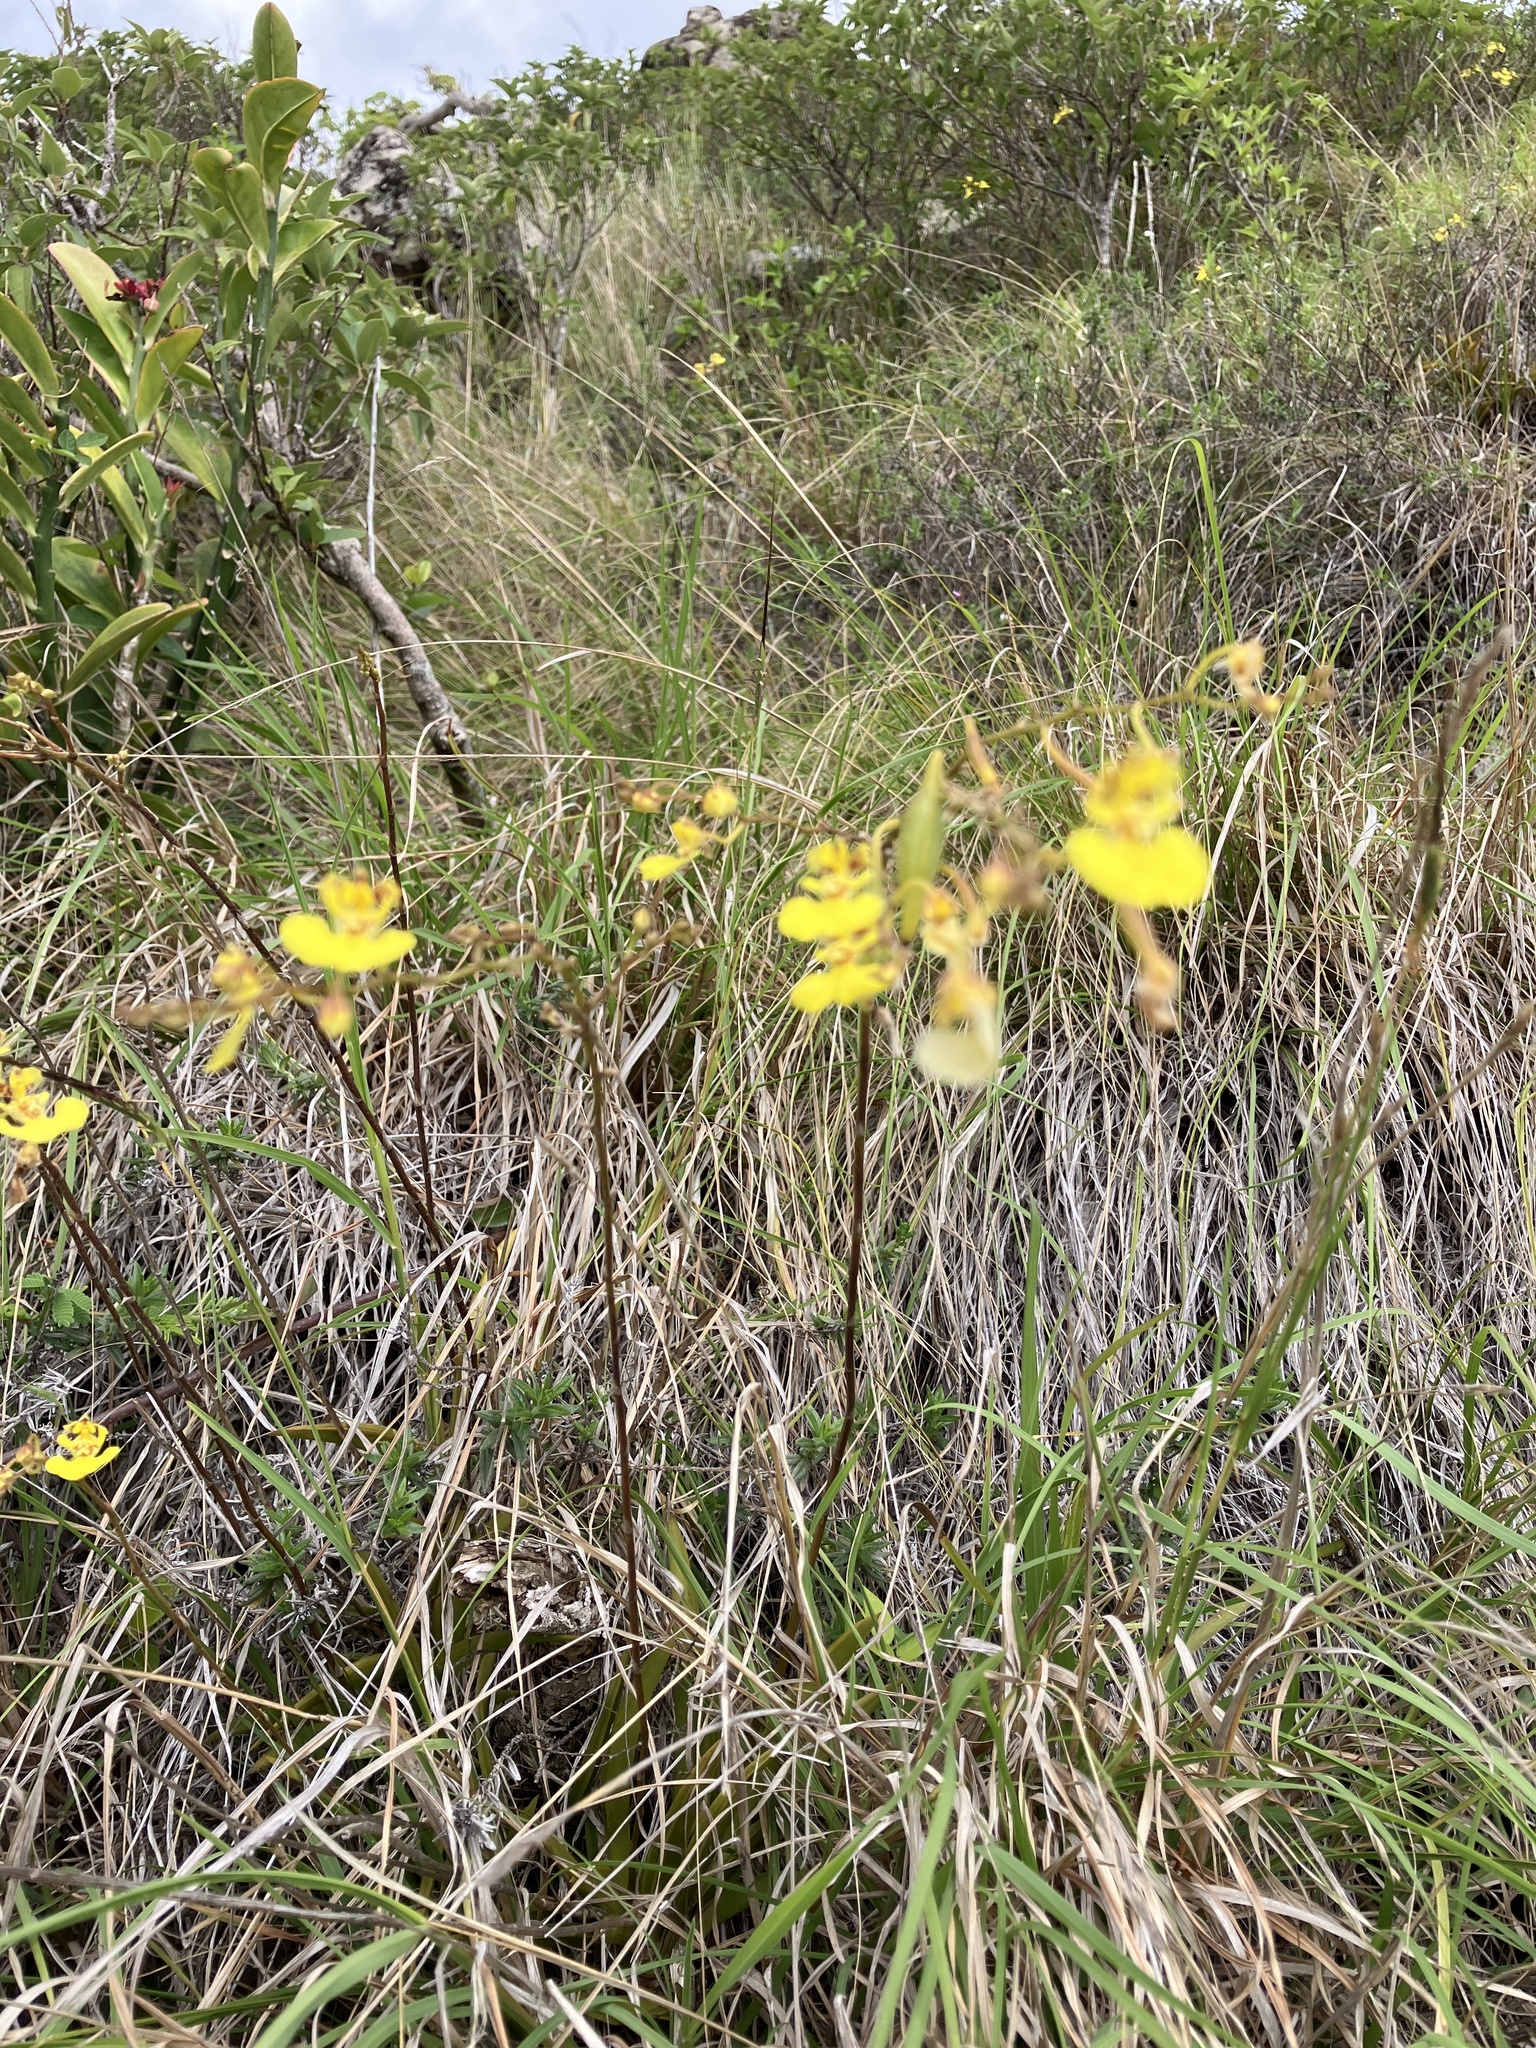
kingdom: Plantae
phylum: Tracheophyta
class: Liliopsida
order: Asparagales
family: Orchidaceae
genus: Tolumnia
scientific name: Tolumnia urophylla
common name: Dancing lady
